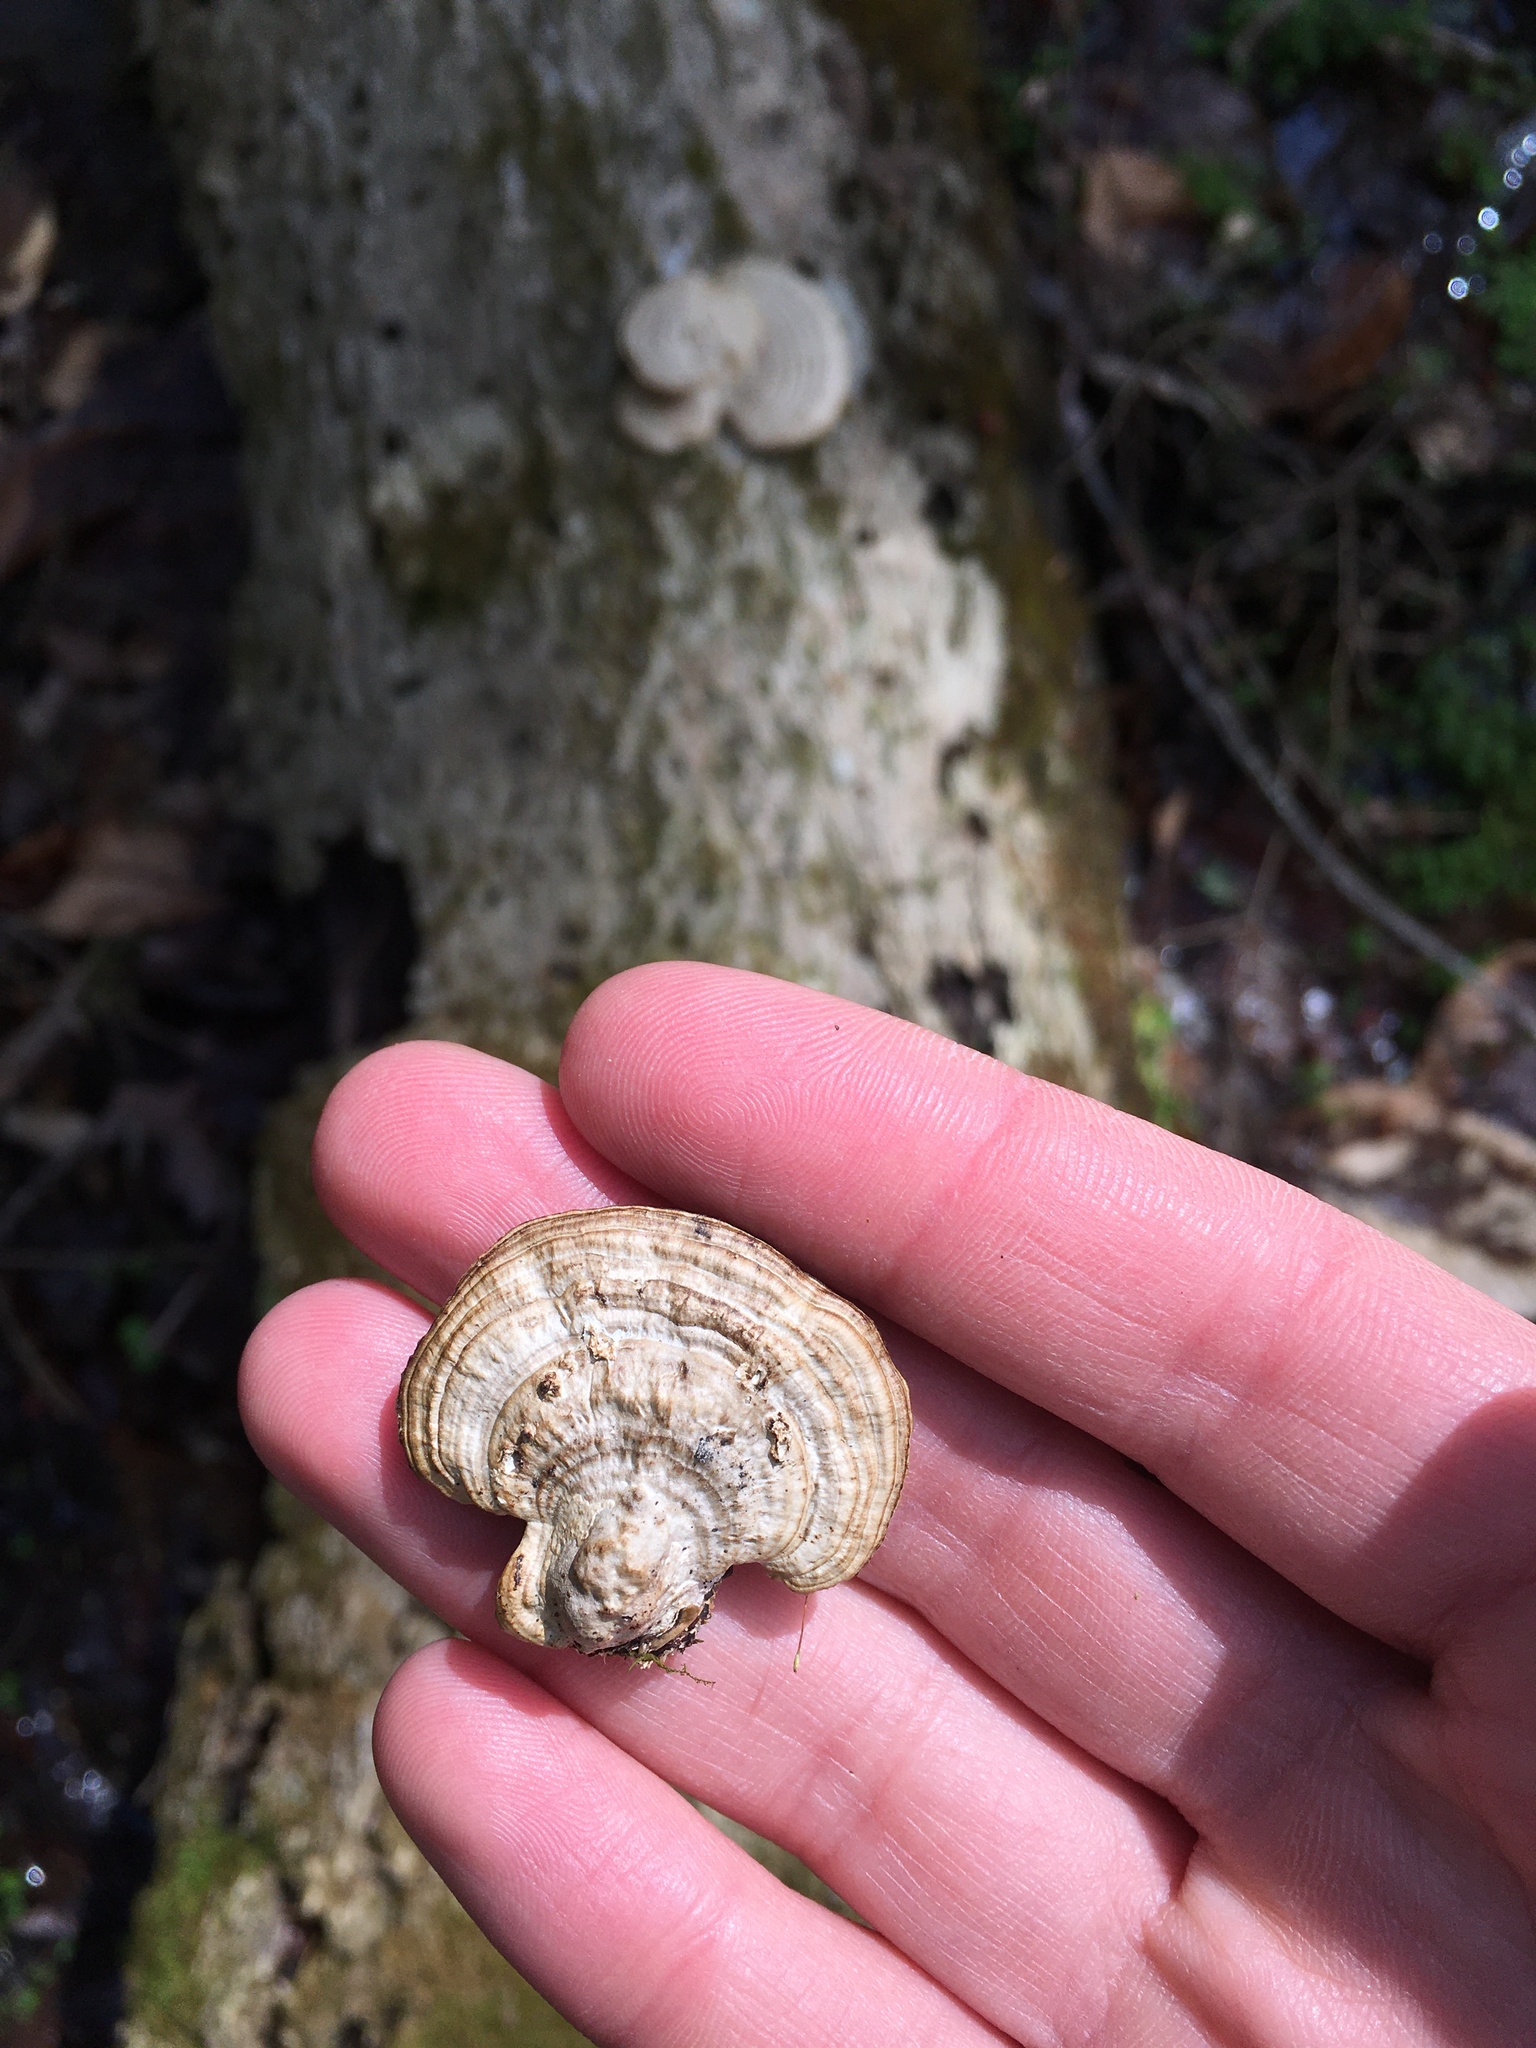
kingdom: Fungi
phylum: Basidiomycota
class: Agaricomycetes
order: Polyporales
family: Polyporaceae
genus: Daedaleopsis
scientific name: Daedaleopsis confragosa
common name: Blushing bracket
